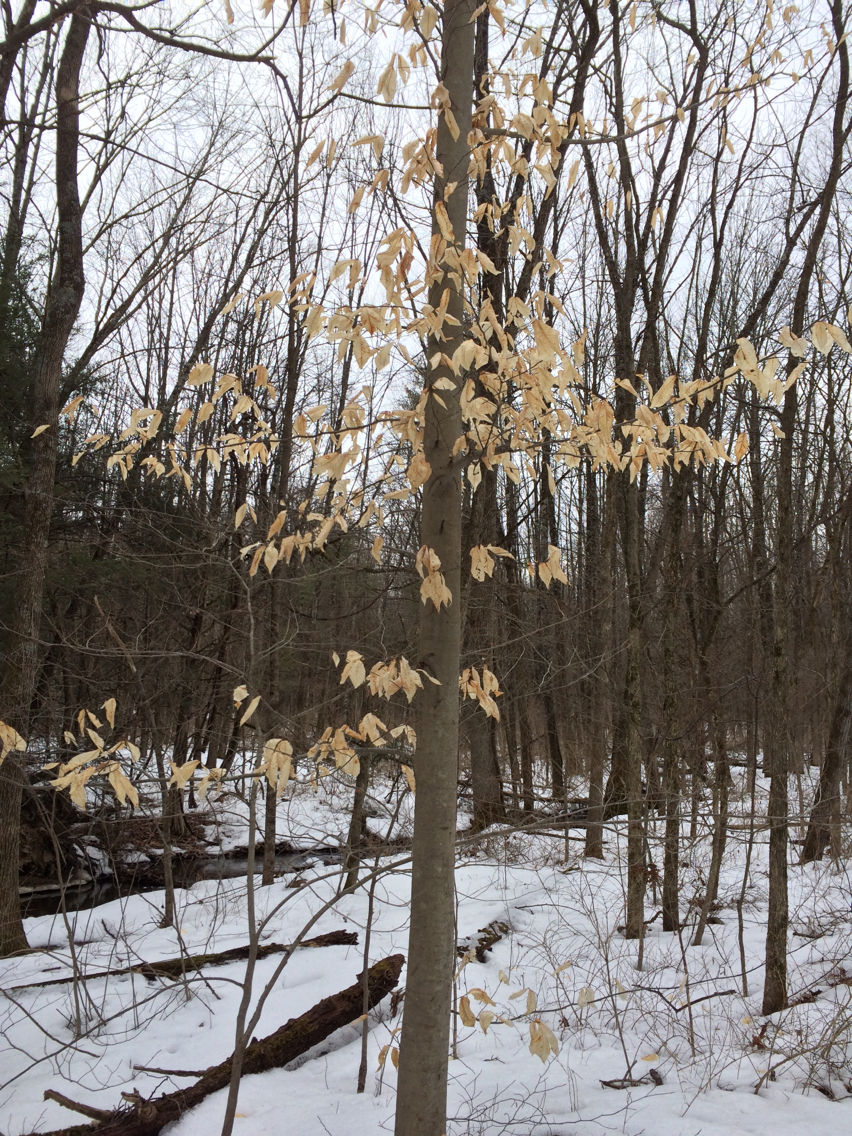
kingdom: Plantae
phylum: Tracheophyta
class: Magnoliopsida
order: Fagales
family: Fagaceae
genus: Fagus
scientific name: Fagus grandifolia
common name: American beech
